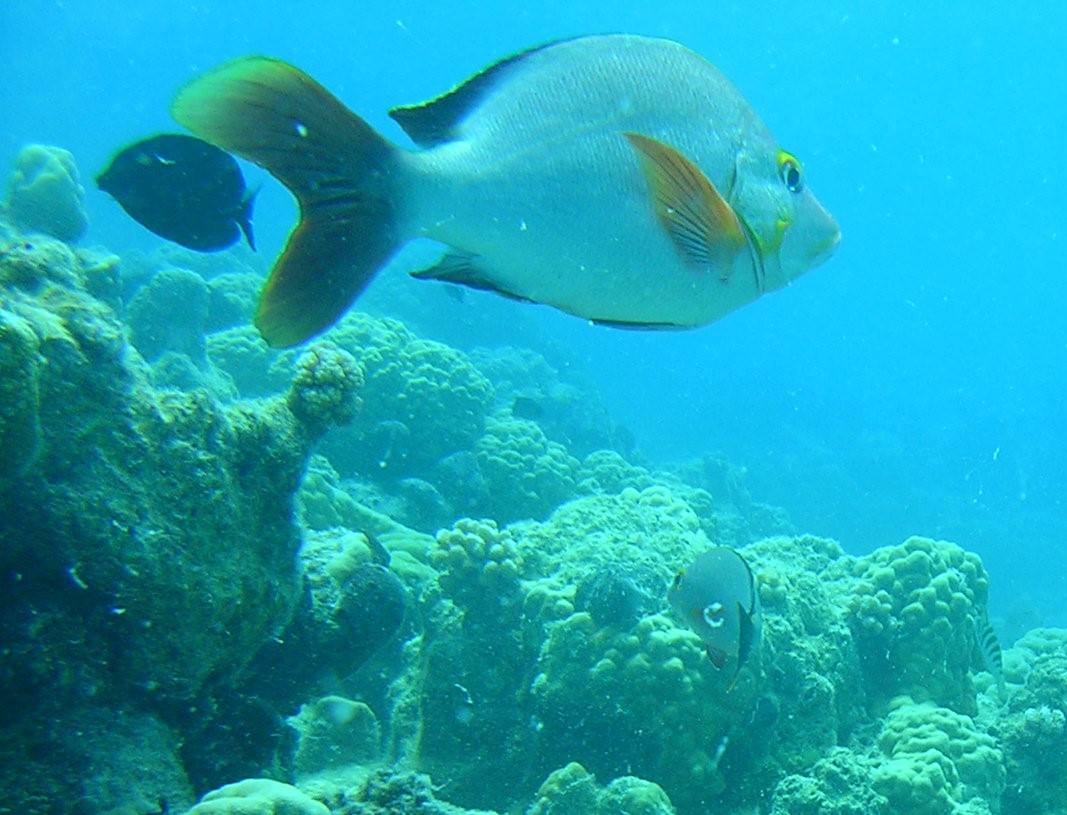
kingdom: Animalia
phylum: Chordata
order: Perciformes
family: Lutjanidae
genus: Lutjanus
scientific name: Lutjanus gibbus
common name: Humpback snapper
